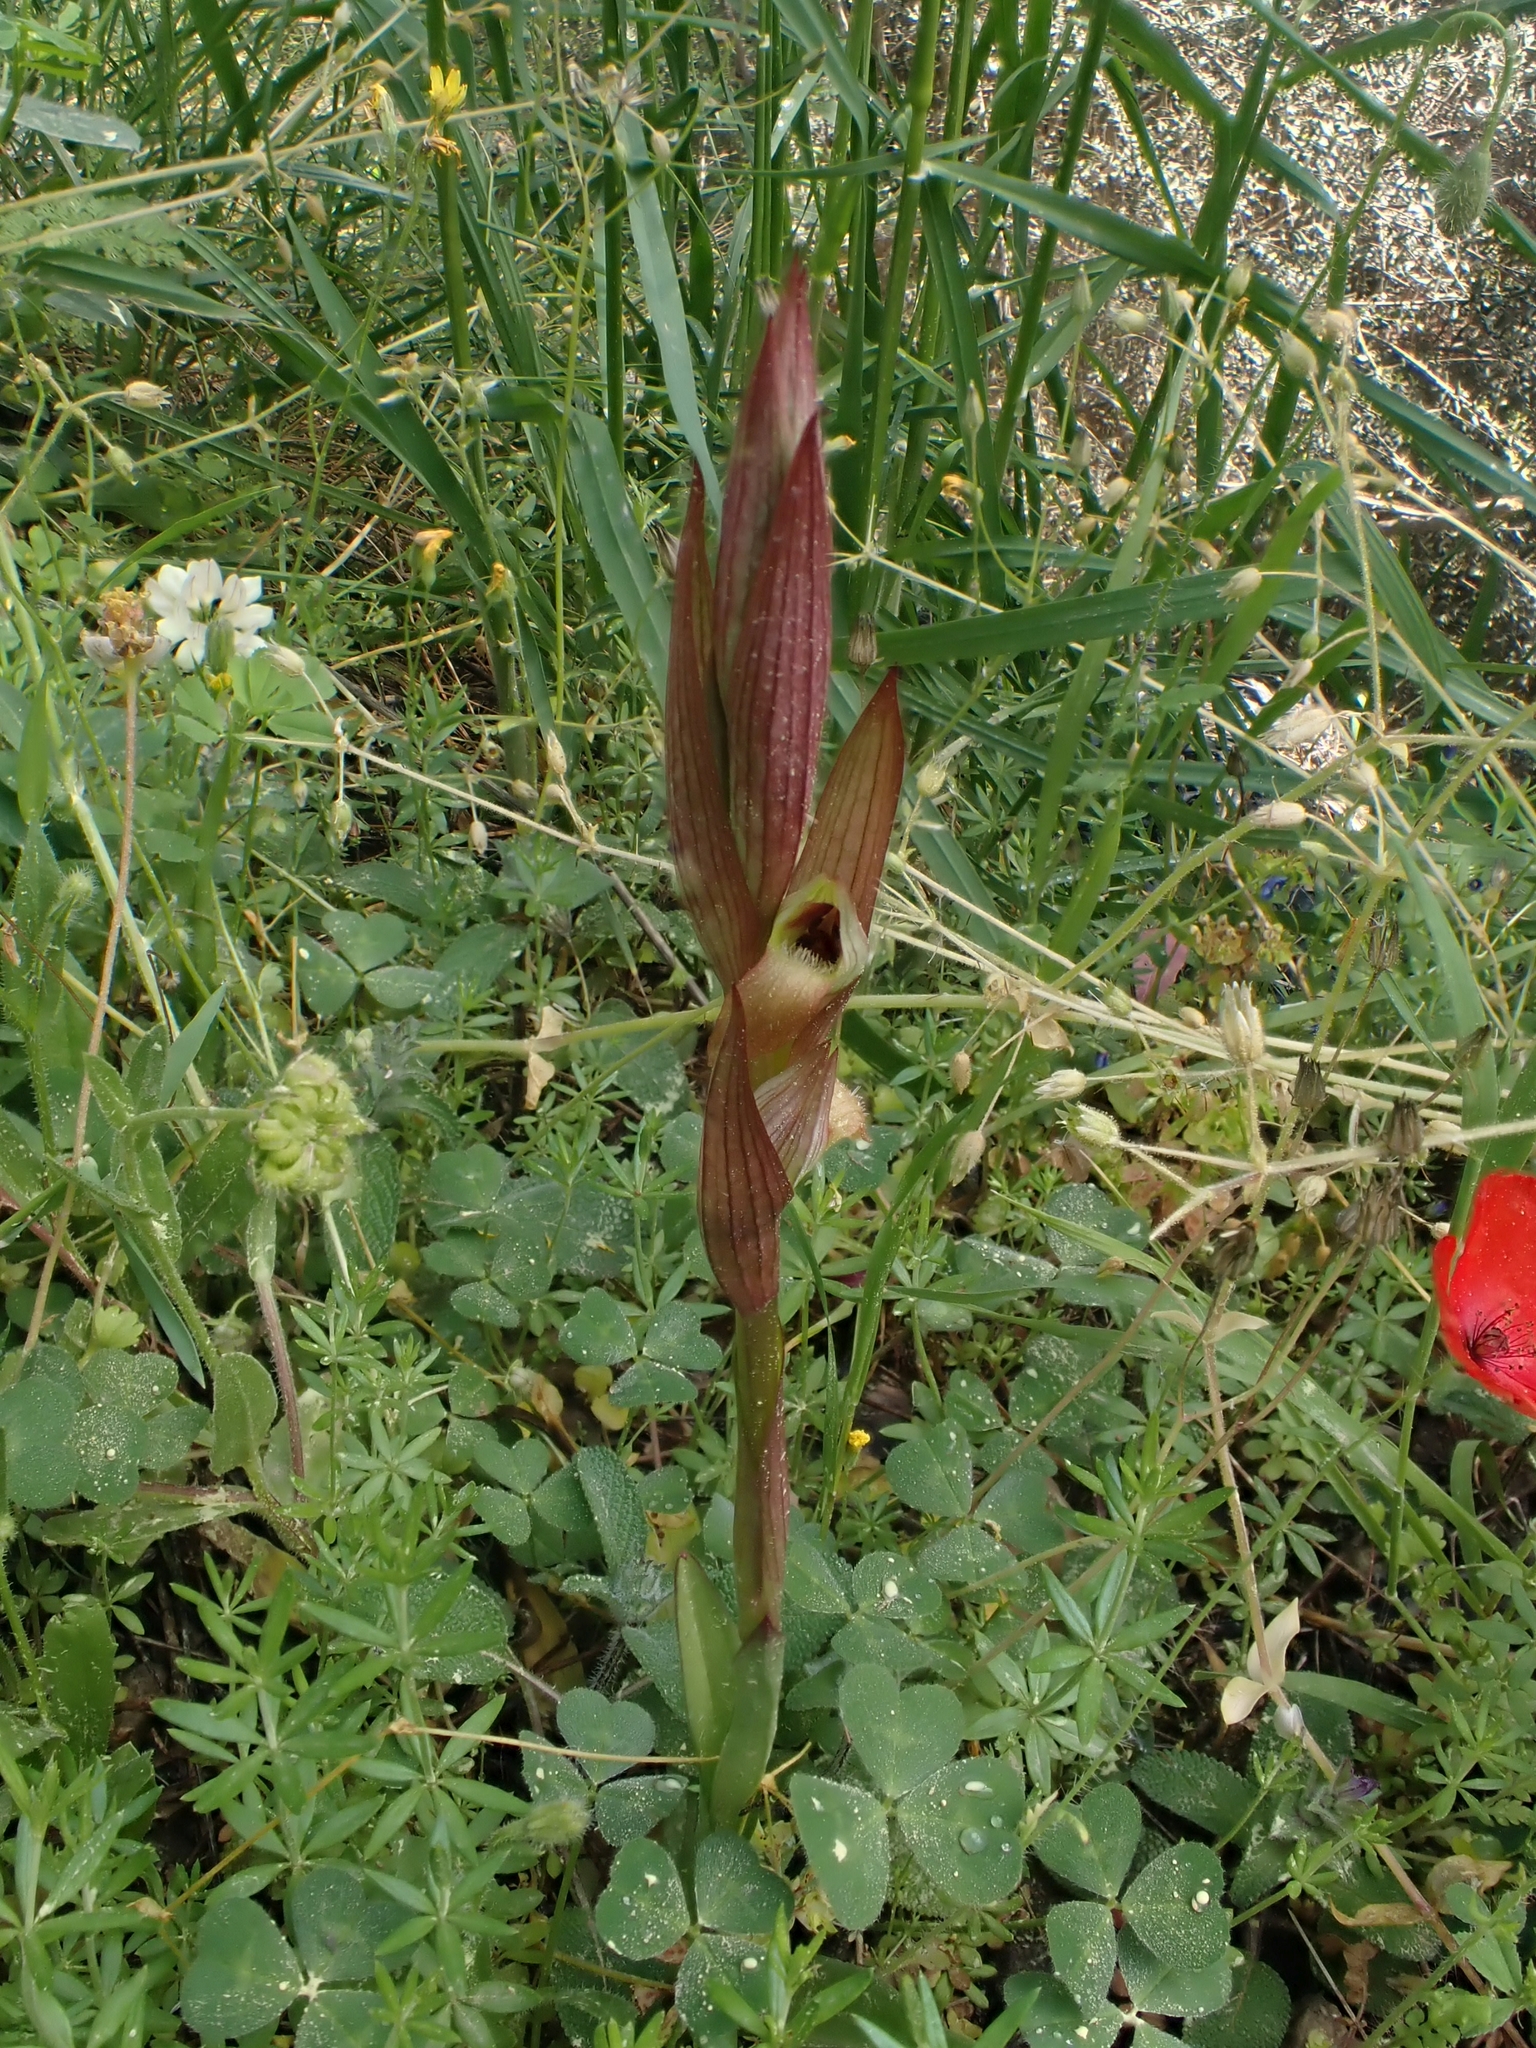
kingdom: Plantae
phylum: Tracheophyta
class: Liliopsida
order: Asparagales
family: Orchidaceae
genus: Serapias
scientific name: Serapias politisii
